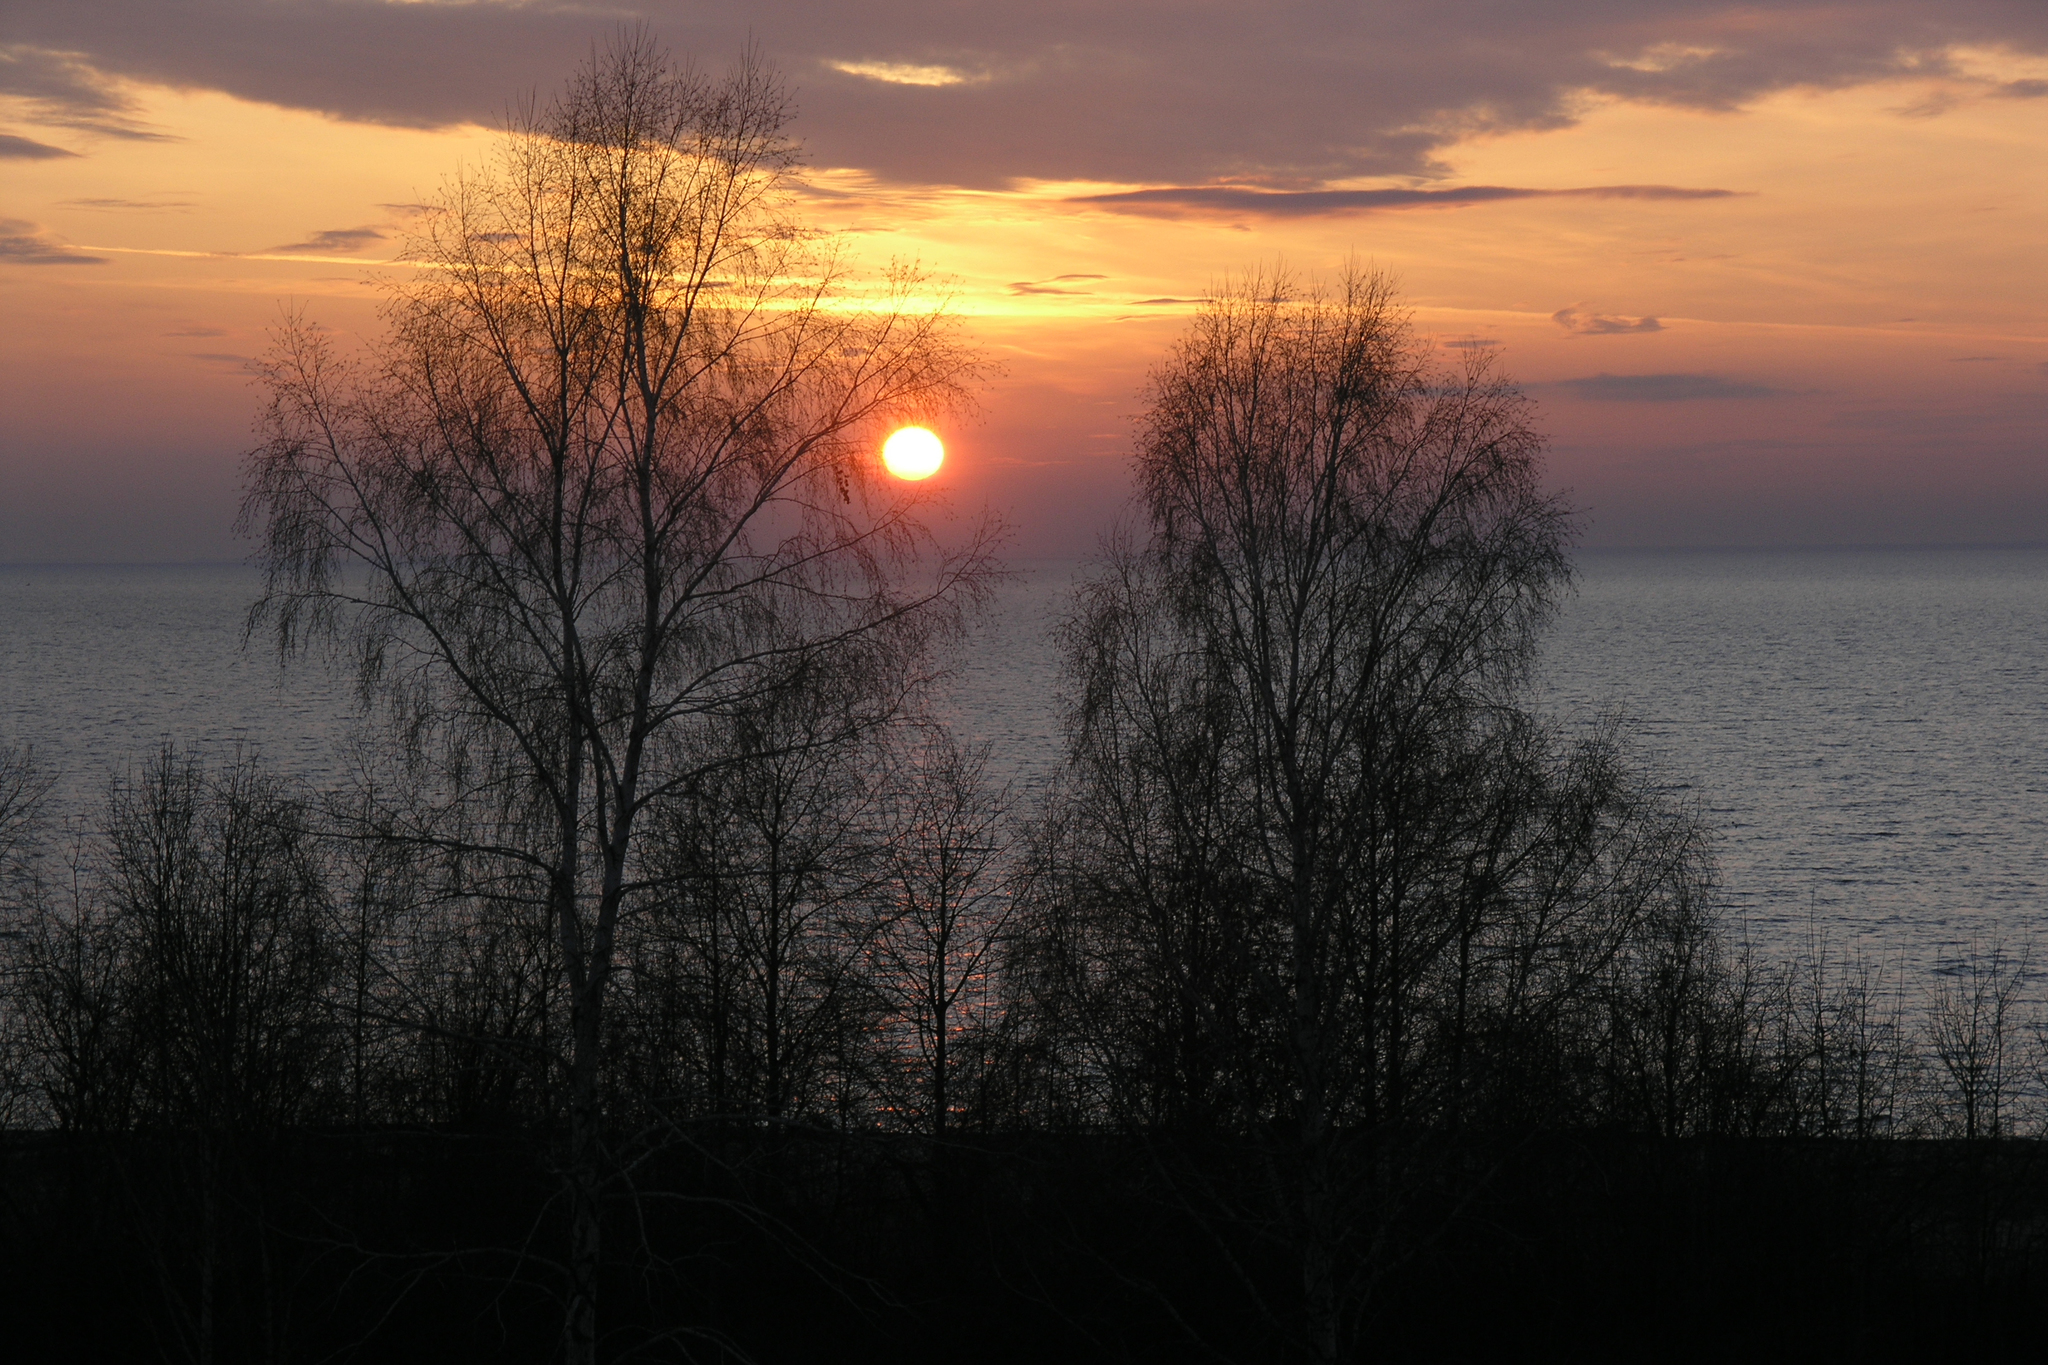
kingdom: Plantae
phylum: Tracheophyta
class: Magnoliopsida
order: Fagales
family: Betulaceae
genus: Betula
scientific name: Betula pendula
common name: Silver birch
